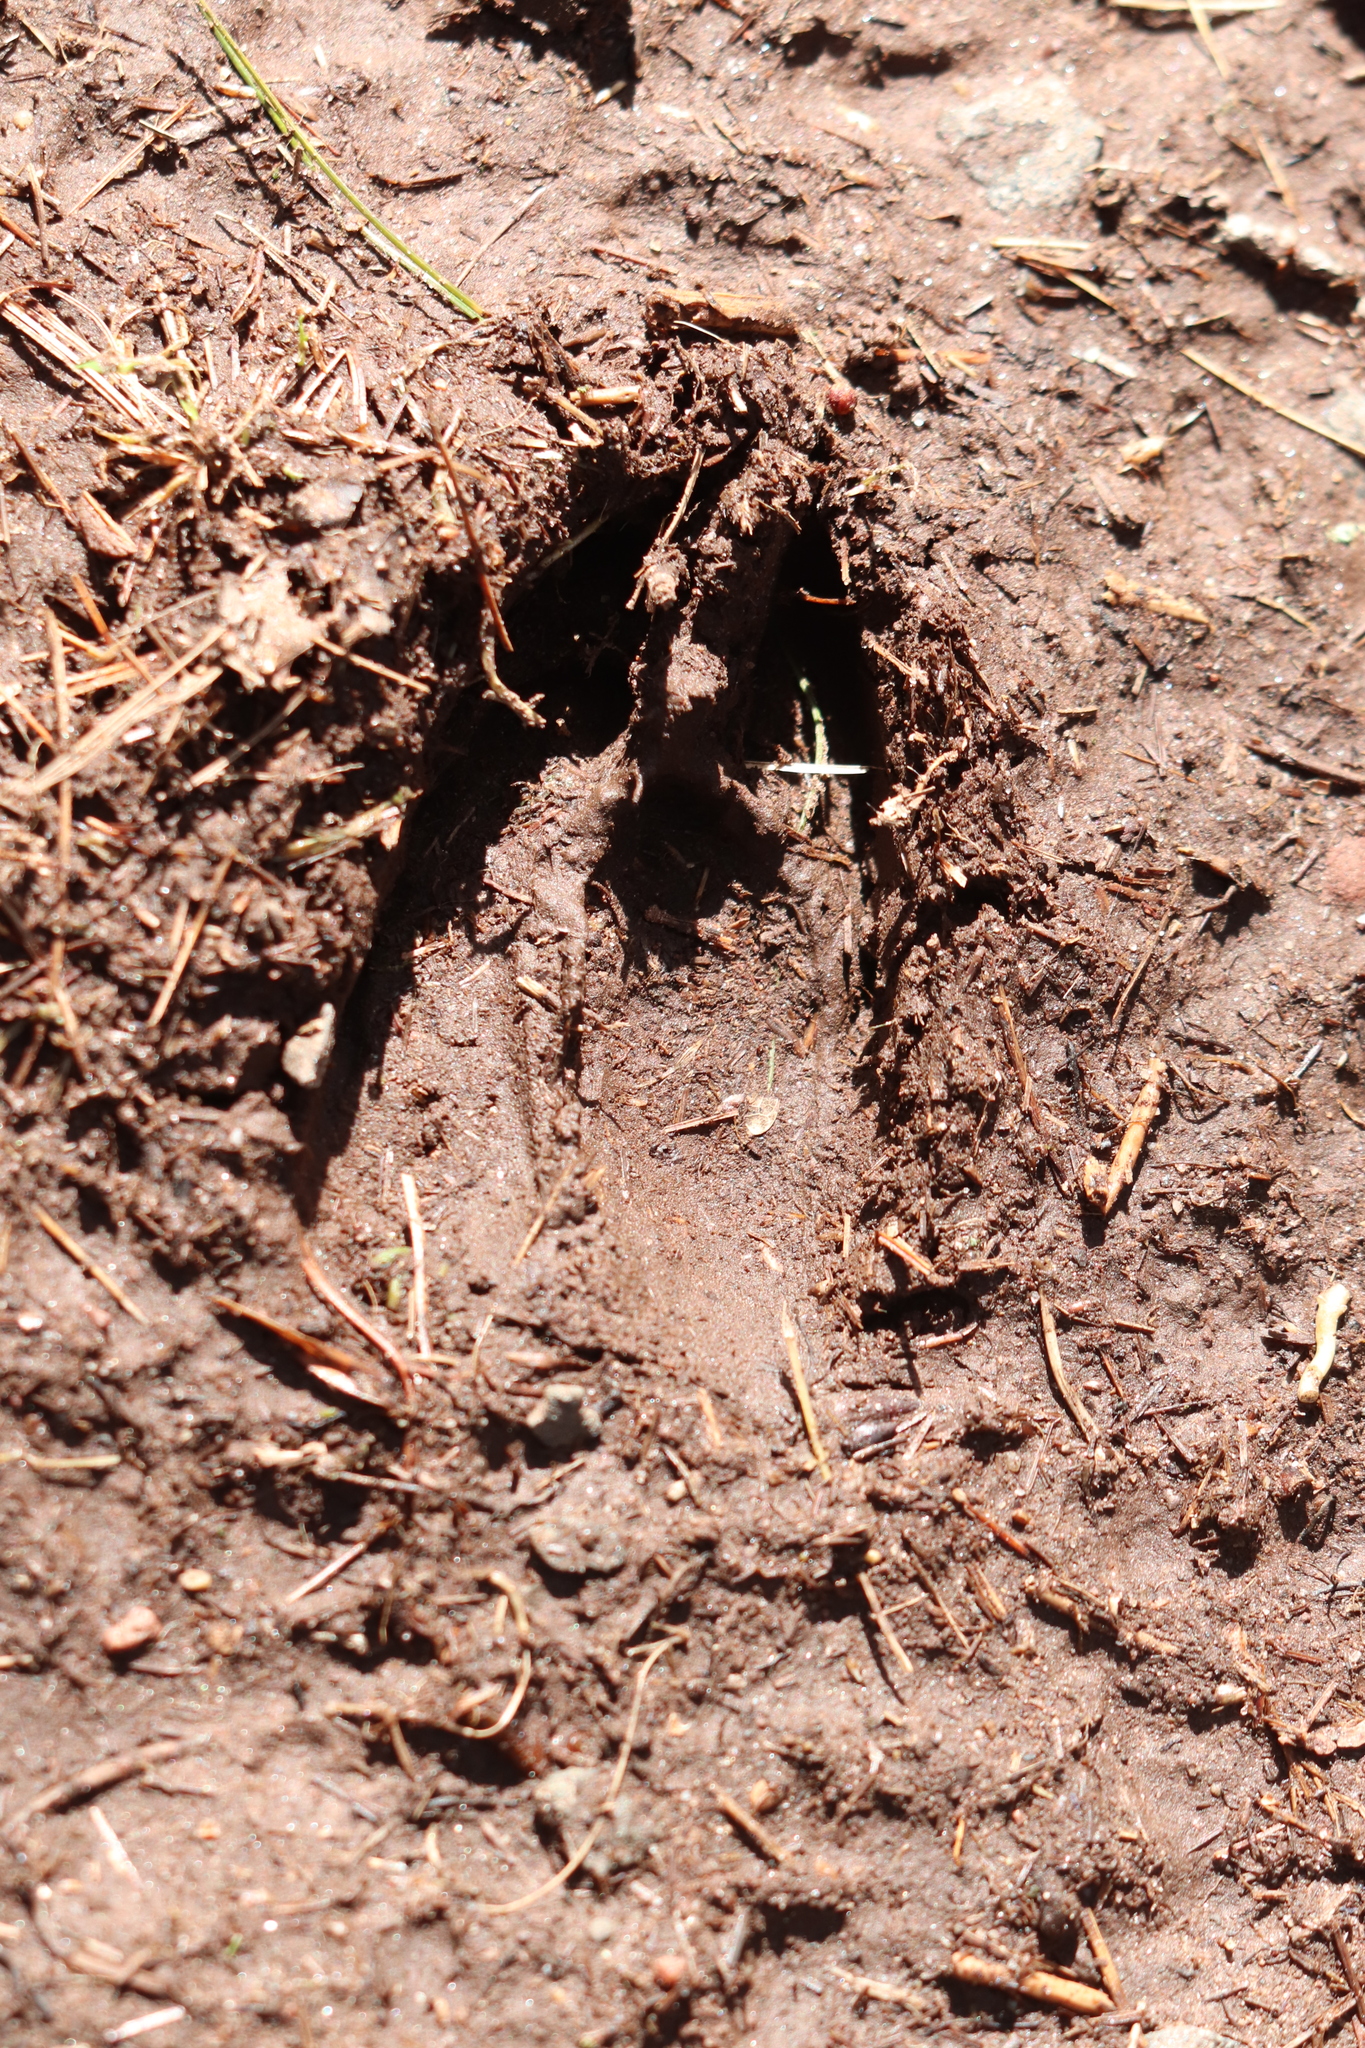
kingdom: Animalia
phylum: Chordata
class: Mammalia
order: Artiodactyla
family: Cervidae
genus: Odocoileus
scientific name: Odocoileus virginianus
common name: White-tailed deer
